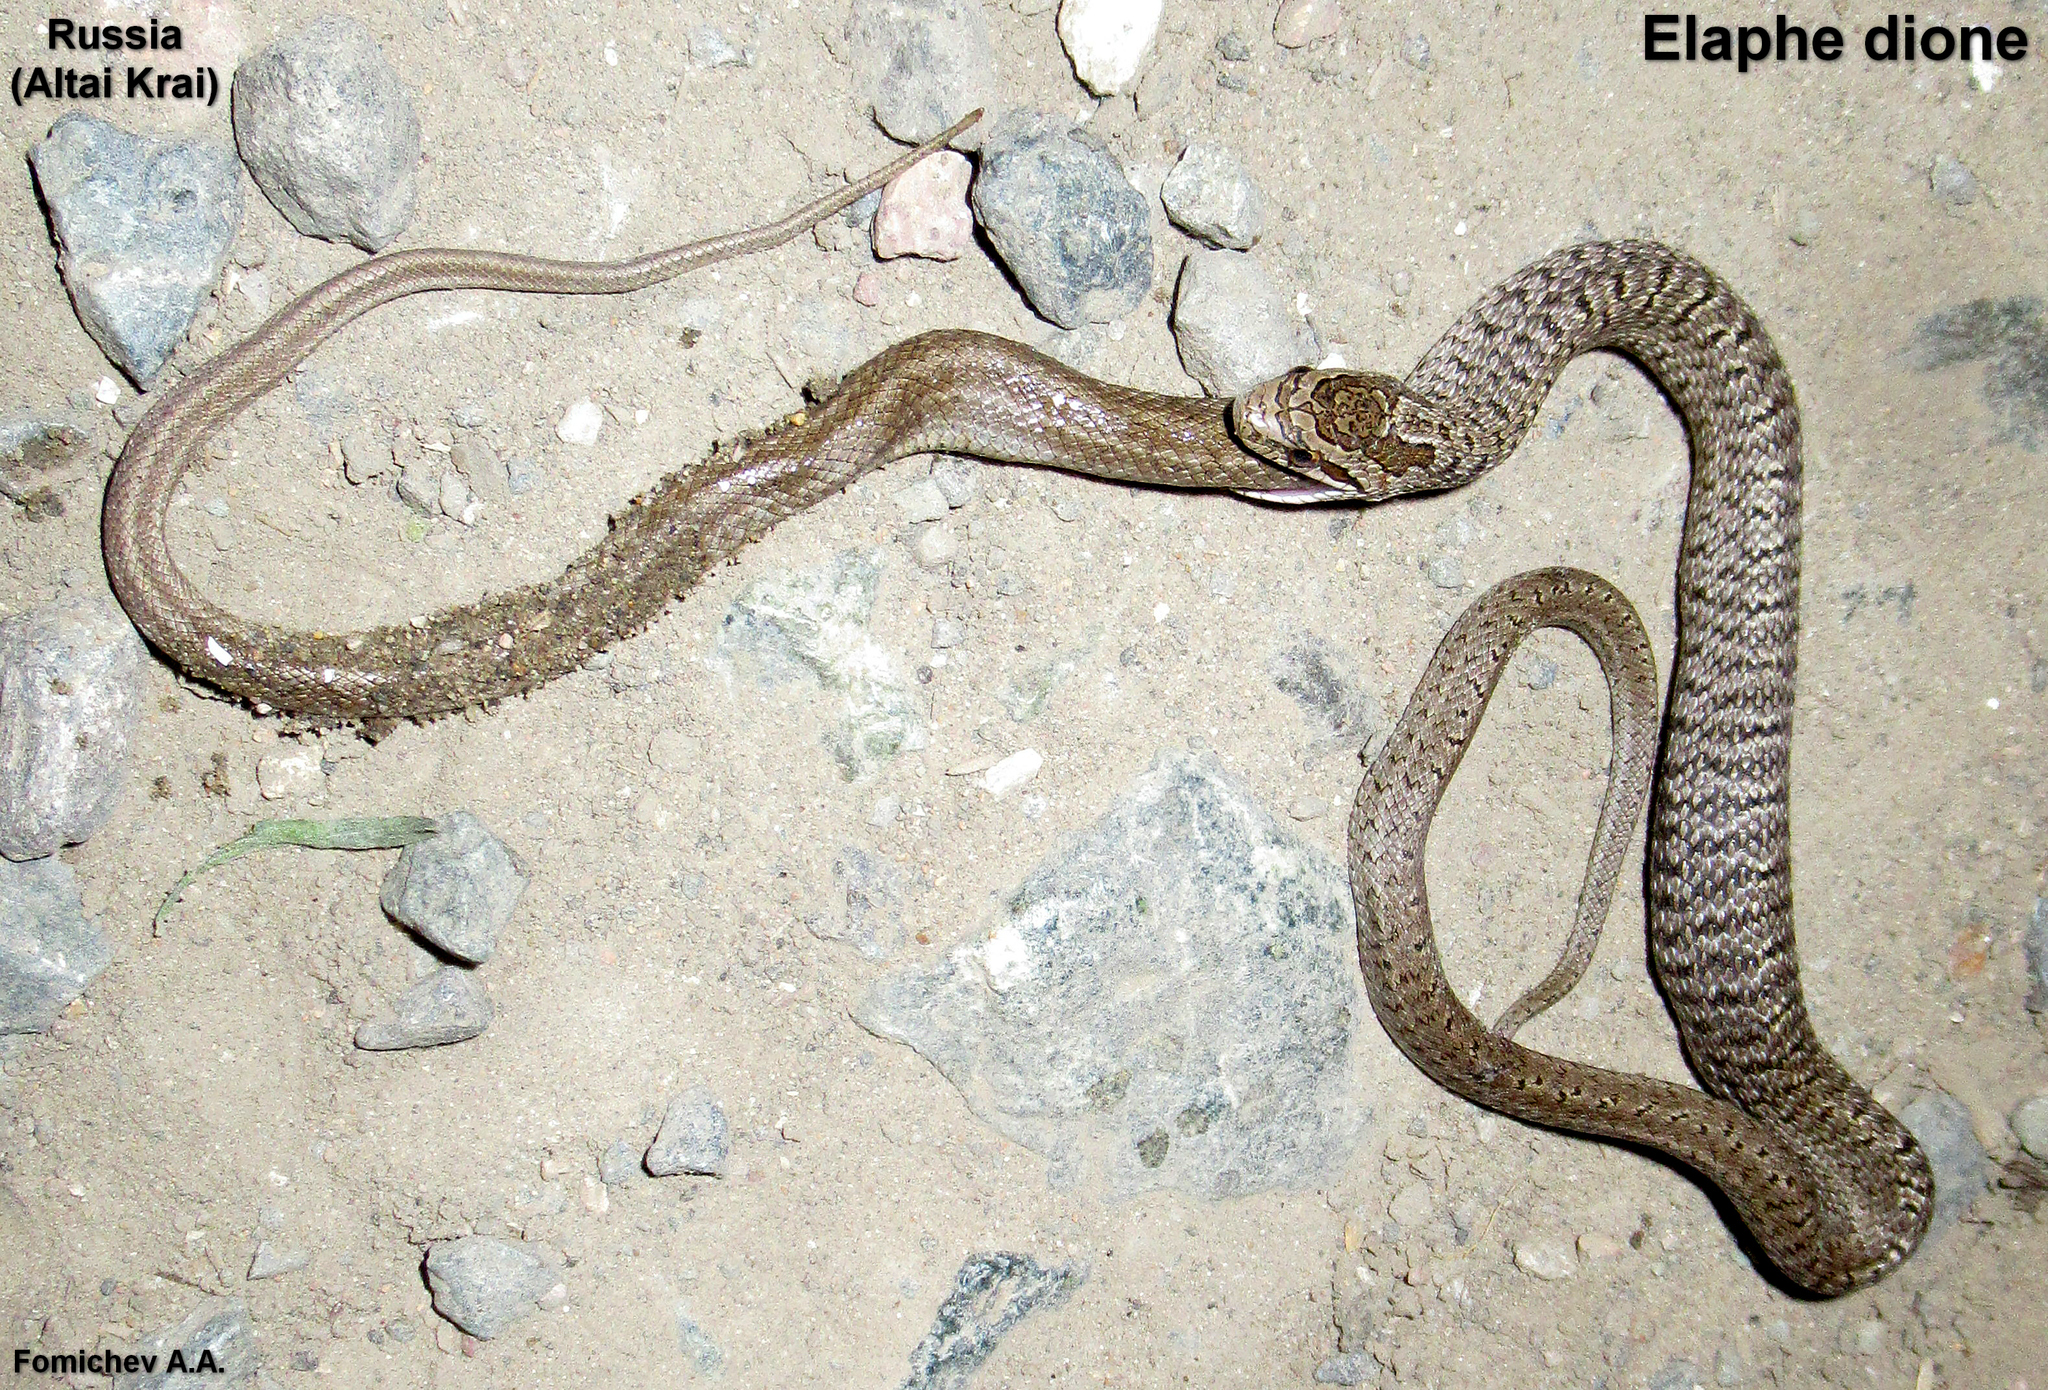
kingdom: Animalia
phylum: Chordata
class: Squamata
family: Colubridae
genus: Elaphe
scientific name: Elaphe dione
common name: Dione ratsnake
